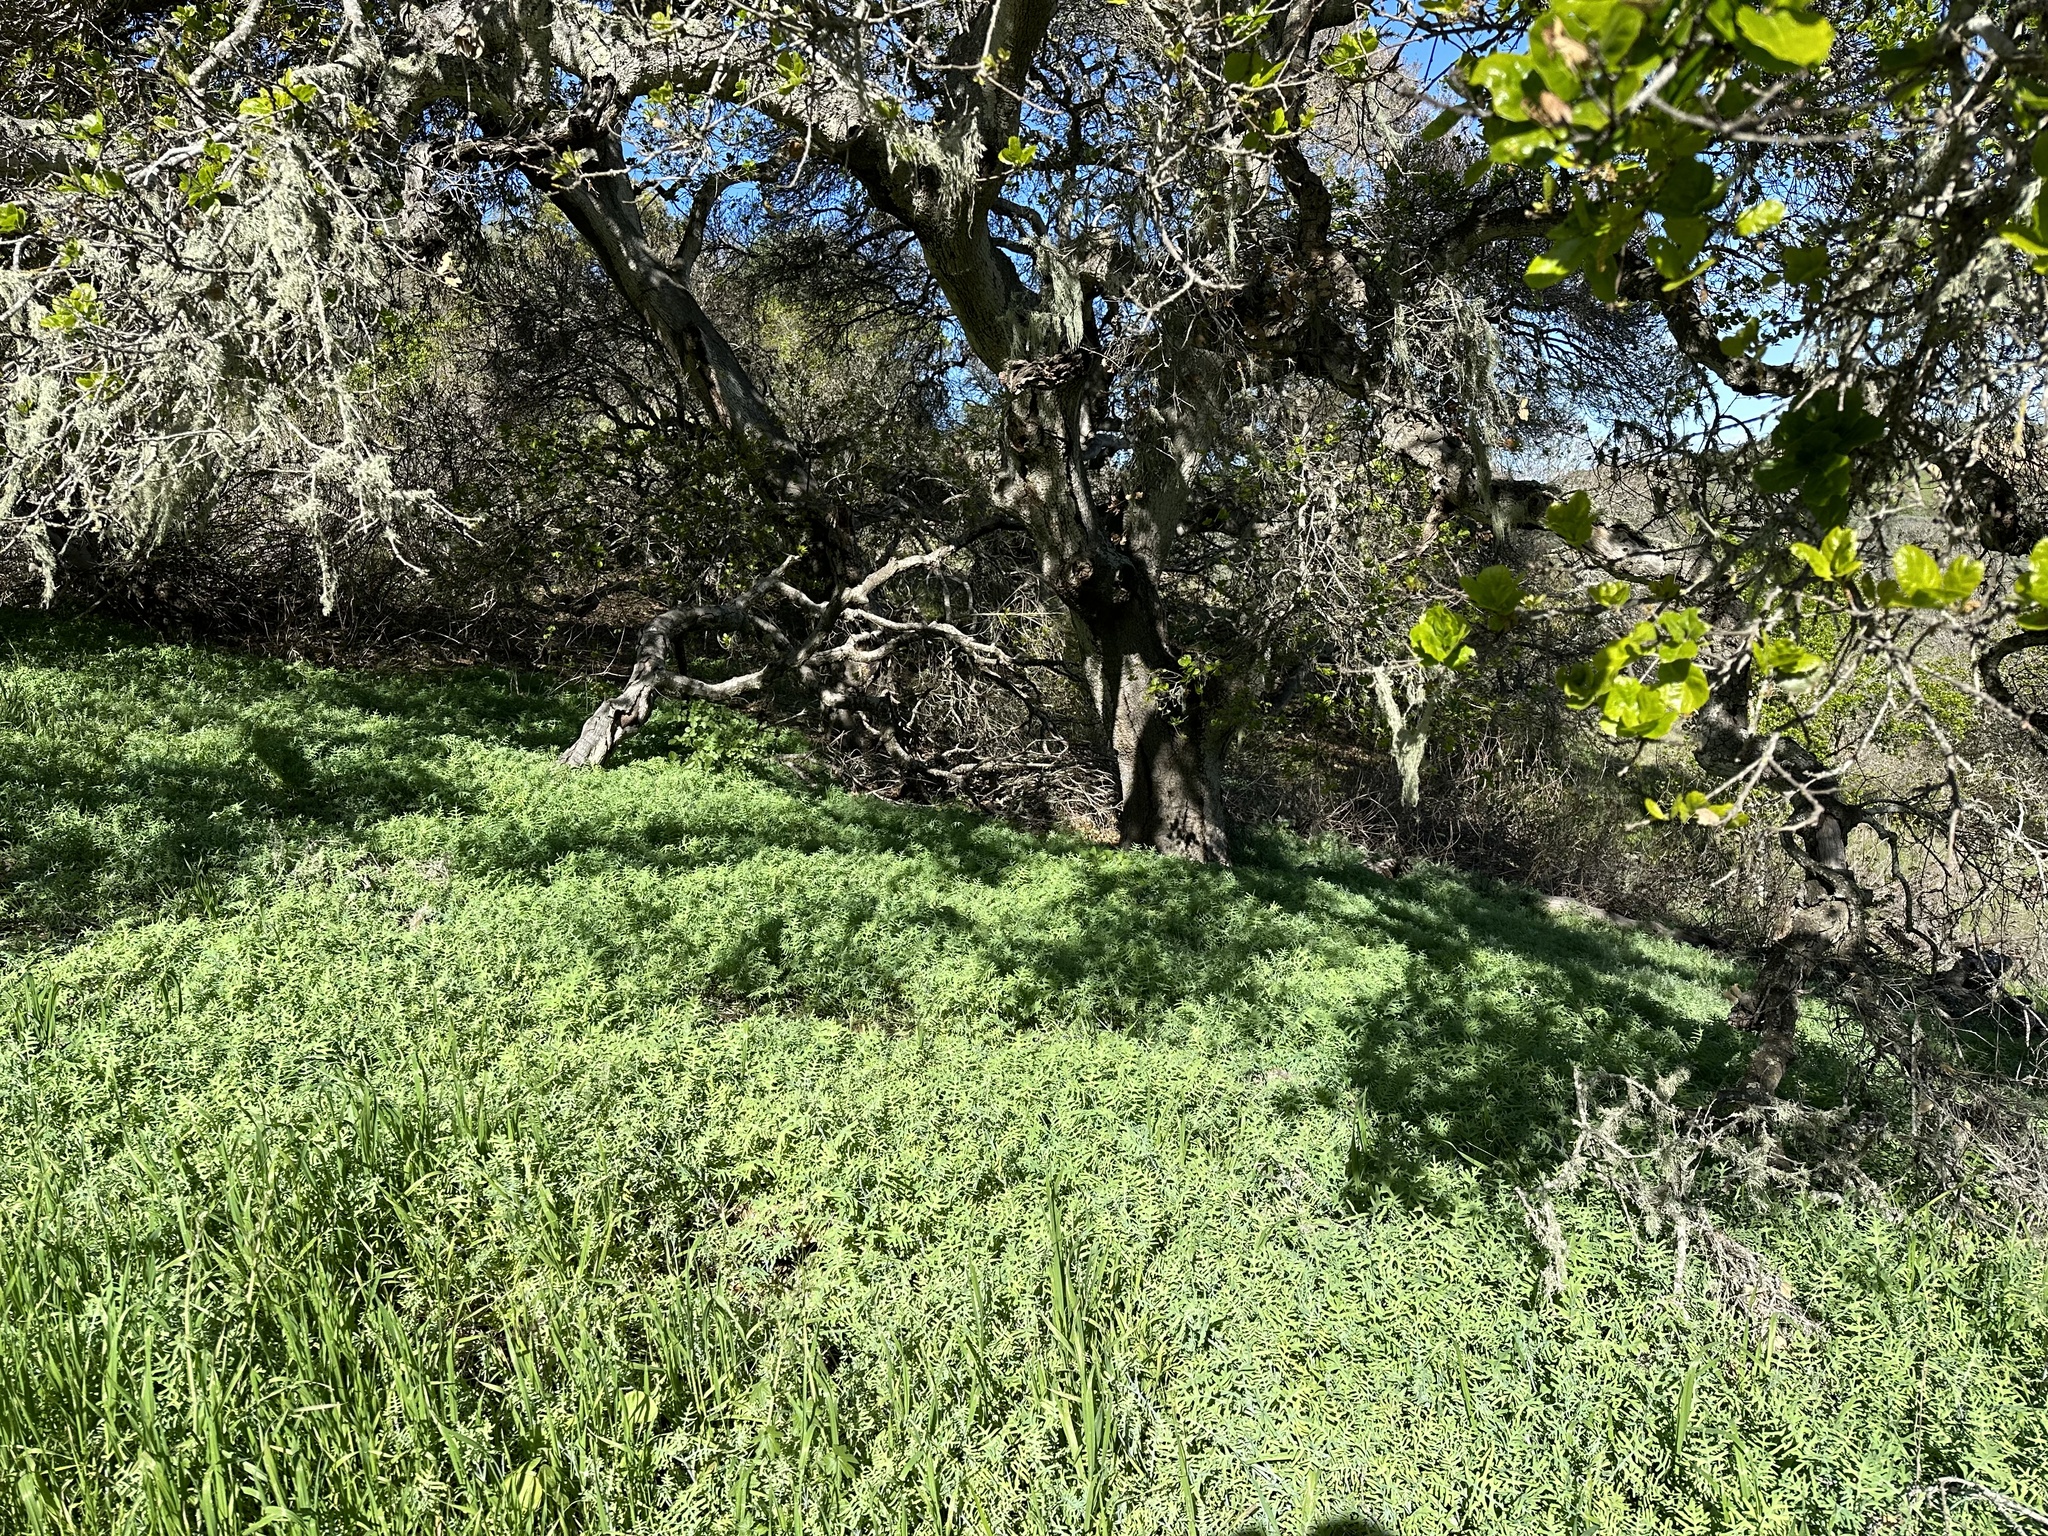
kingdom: Plantae
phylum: Tracheophyta
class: Magnoliopsida
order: Boraginales
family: Hydrophyllaceae
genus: Pholistoma
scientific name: Pholistoma membranaceum
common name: White fiesta-flower
